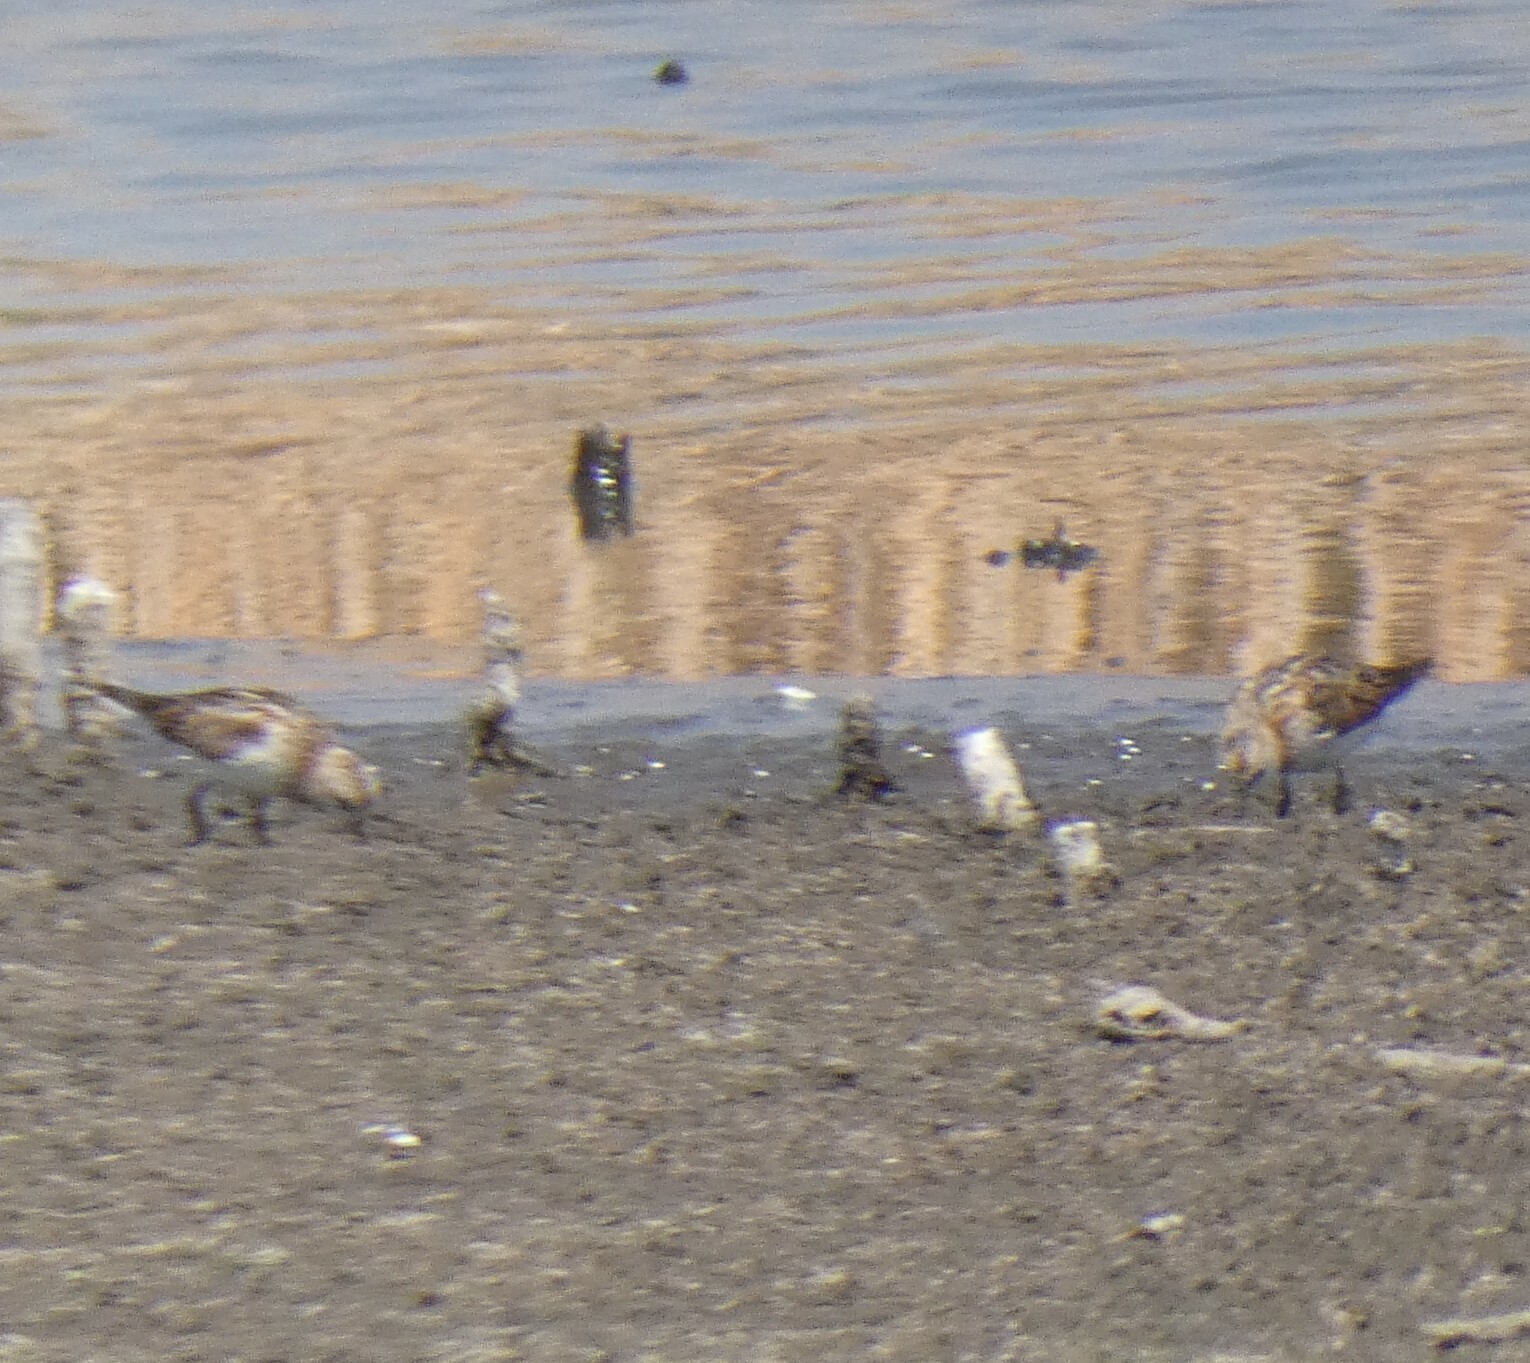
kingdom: Animalia
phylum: Chordata
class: Aves
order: Charadriiformes
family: Scolopacidae
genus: Calidris
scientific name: Calidris minuta
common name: Little stint
